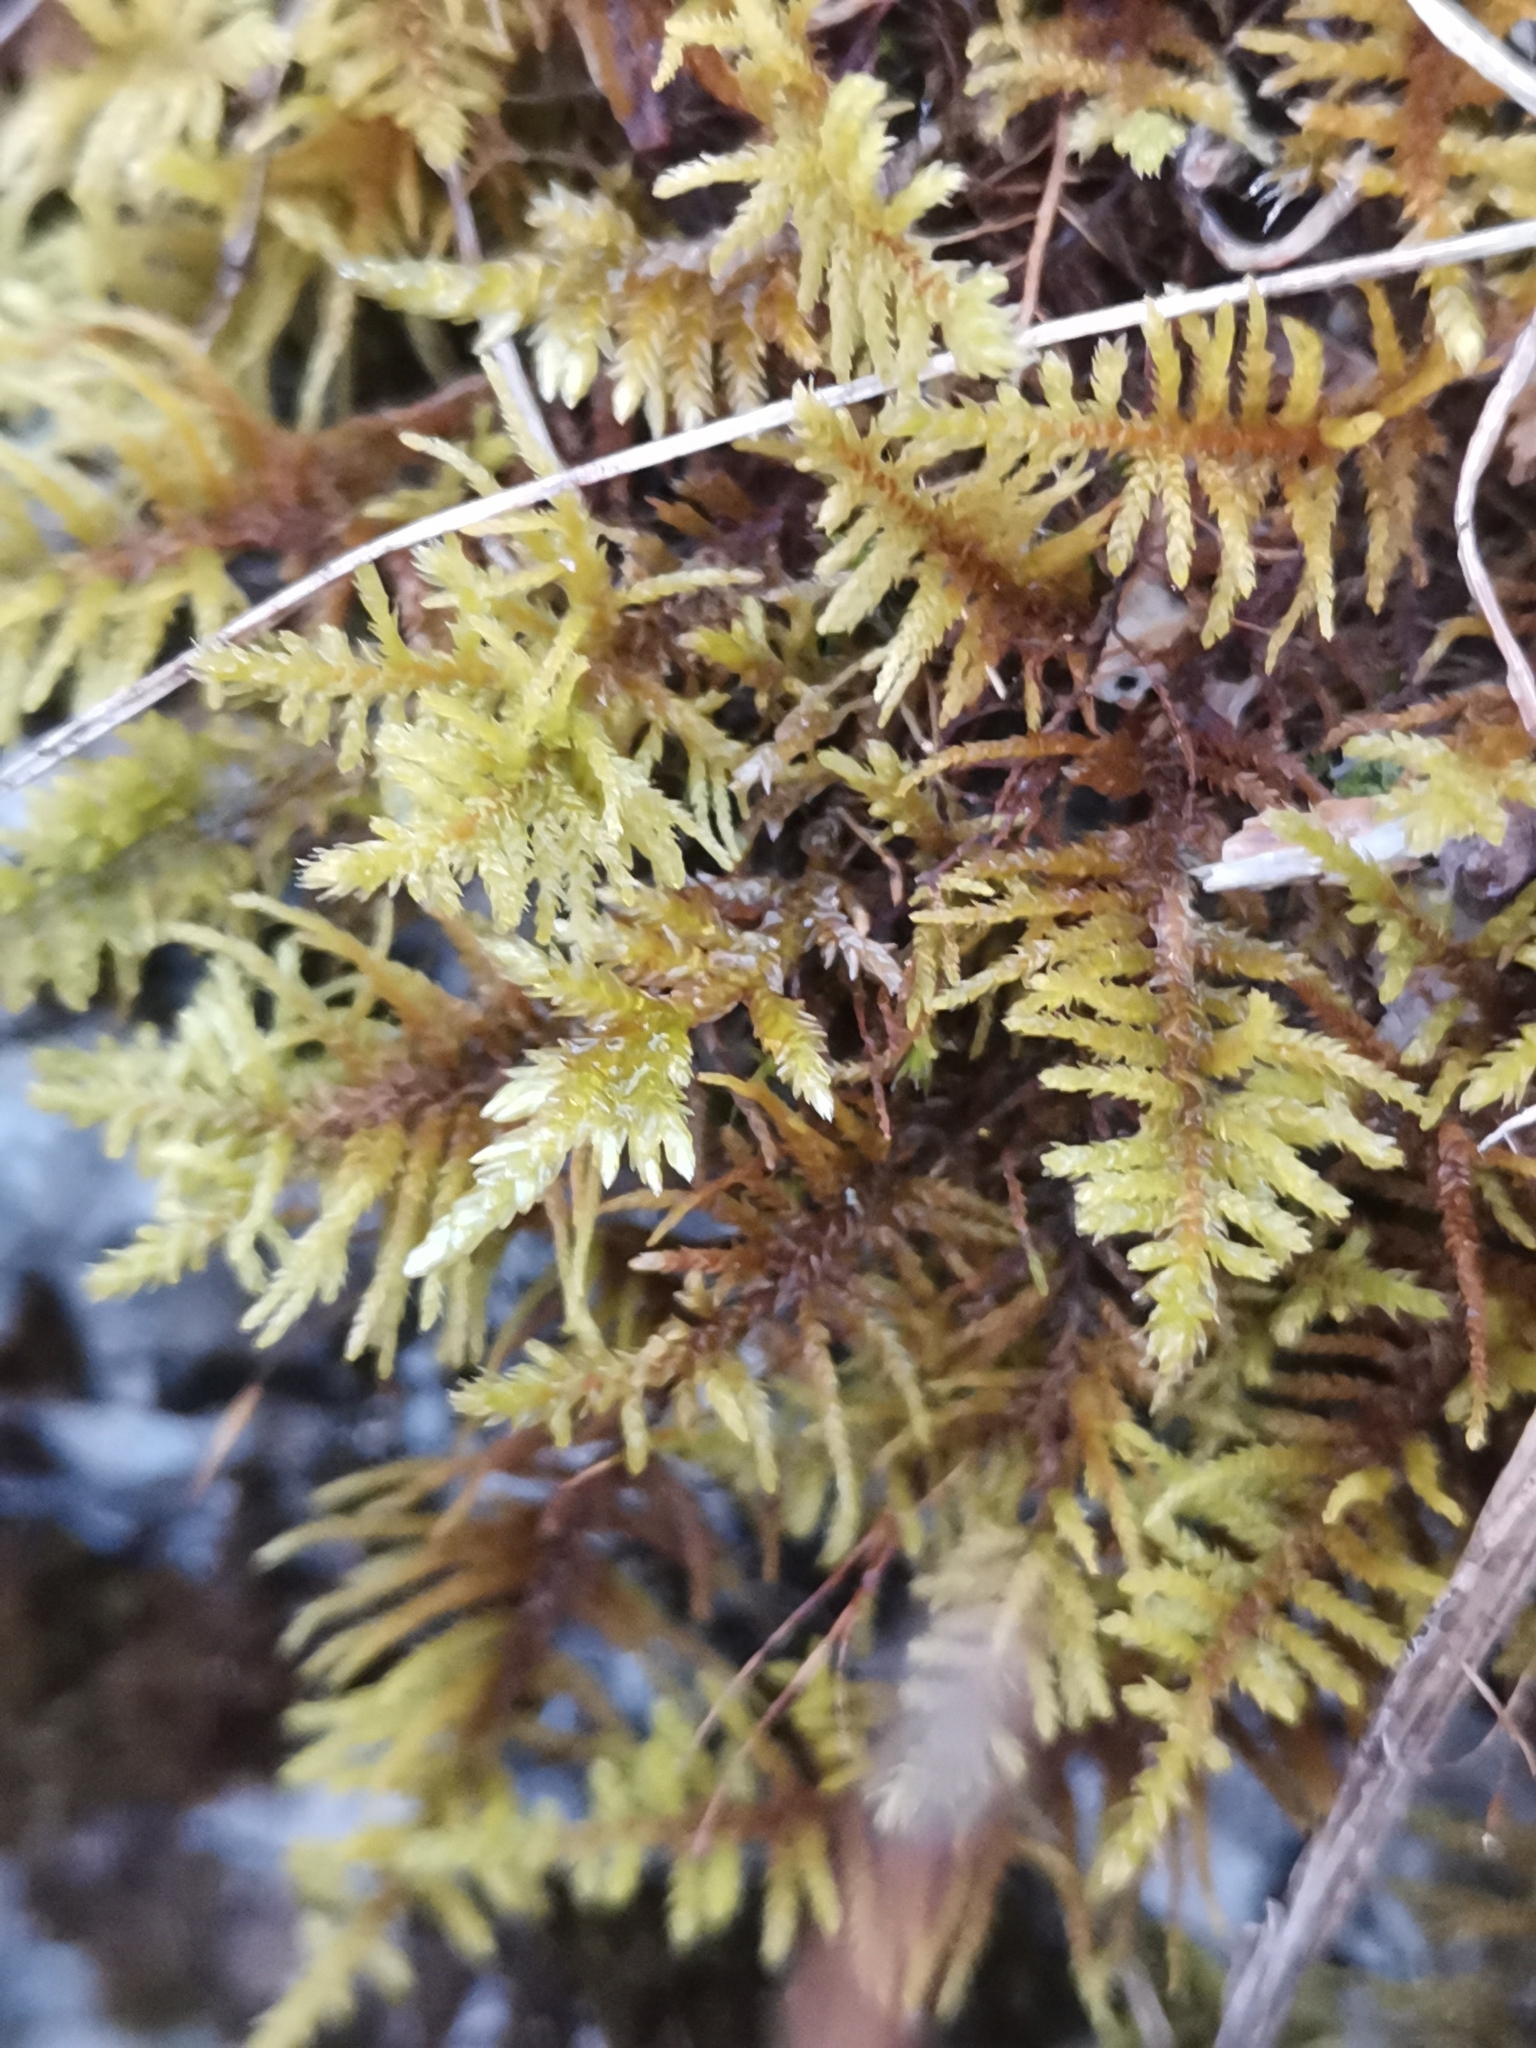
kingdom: Plantae
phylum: Bryophyta
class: Bryopsida
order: Hypnales
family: Thuidiaceae
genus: Abietinella
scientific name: Abietinella abietina
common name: Wiry fern moss
